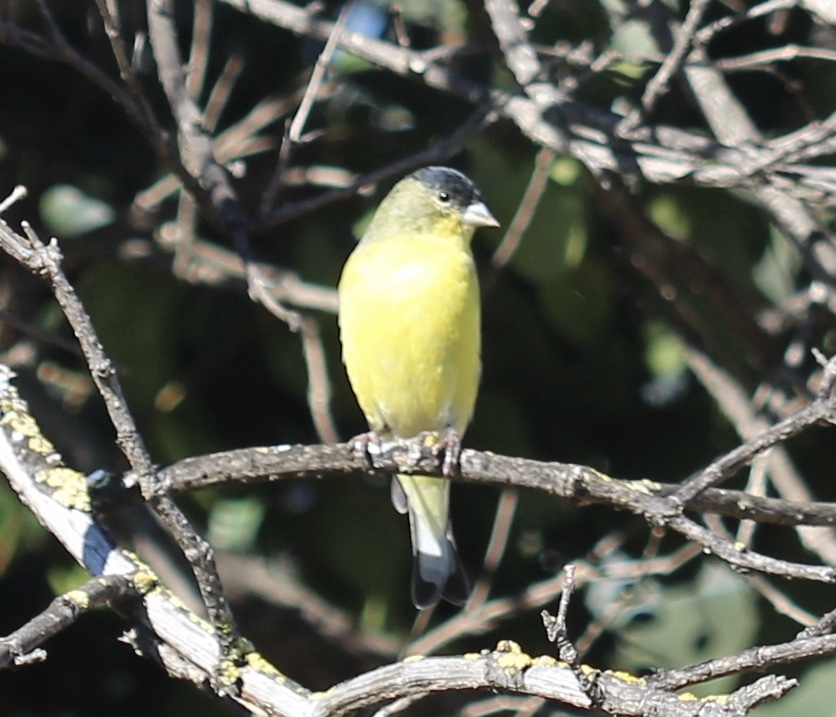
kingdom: Animalia
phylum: Chordata
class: Aves
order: Passeriformes
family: Fringillidae
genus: Spinus
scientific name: Spinus psaltria
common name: Lesser goldfinch
